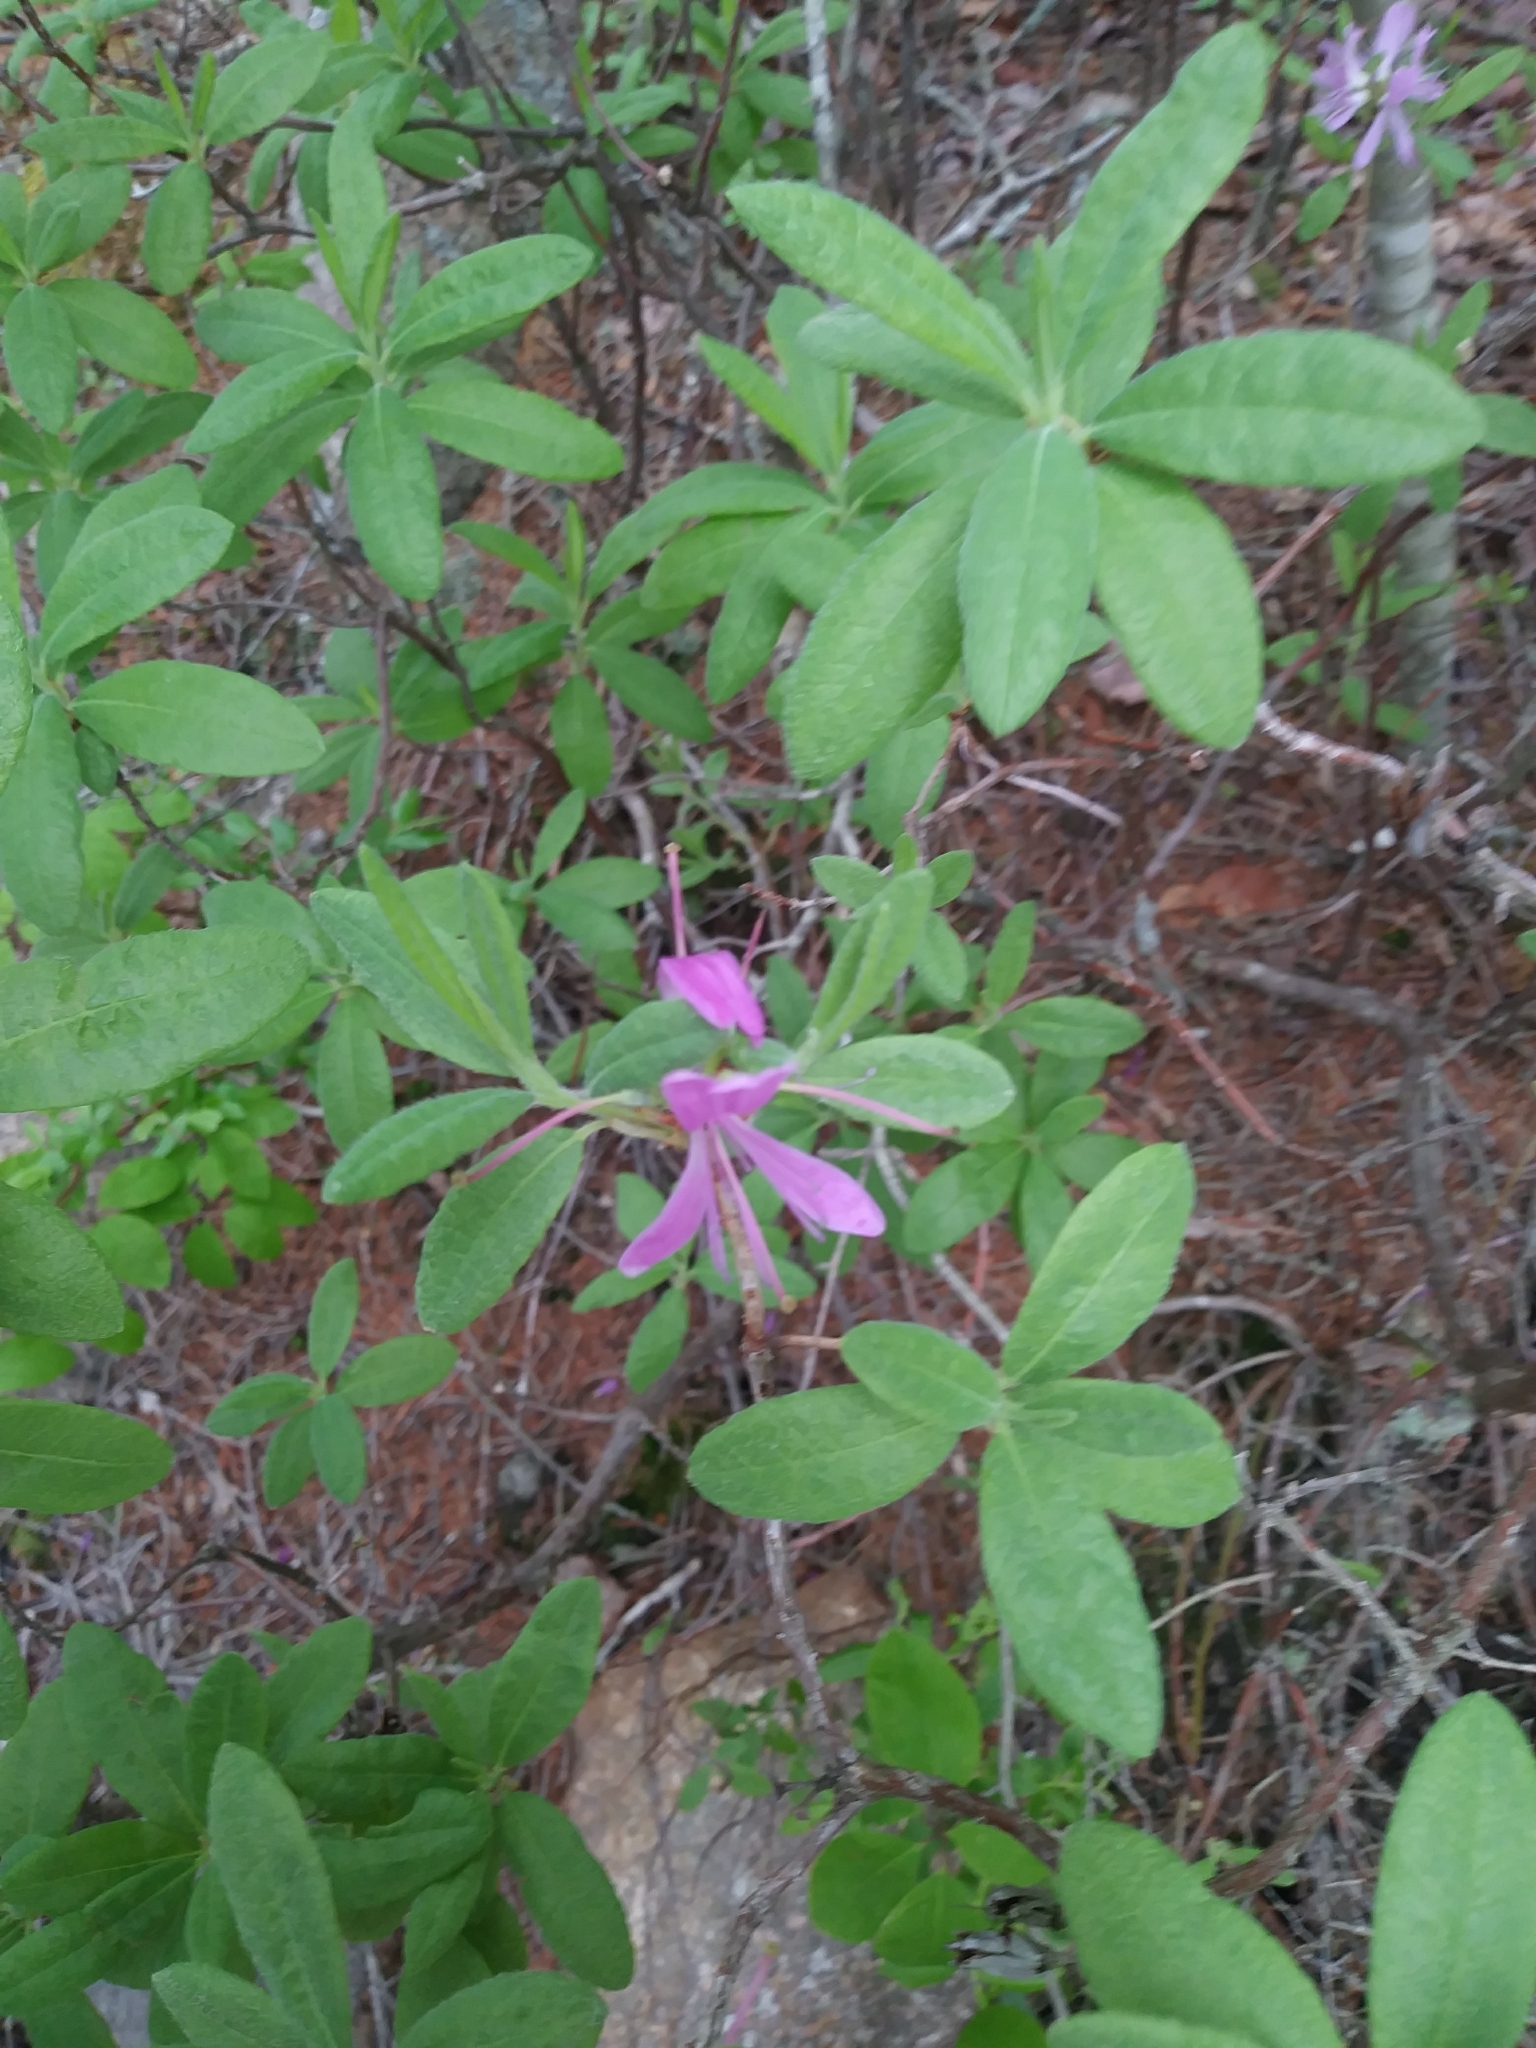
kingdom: Plantae
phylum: Tracheophyta
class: Magnoliopsida
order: Ericales
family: Ericaceae
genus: Rhododendron
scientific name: Rhododendron canadense
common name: Rhodora
